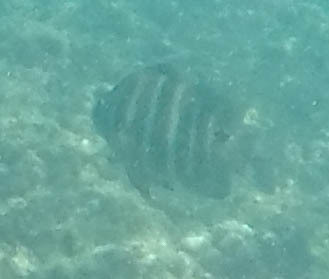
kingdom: Animalia
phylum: Chordata
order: Perciformes
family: Pomacentridae
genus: Abudefduf
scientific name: Abudefduf sordidus
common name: Blackspot sergeant
